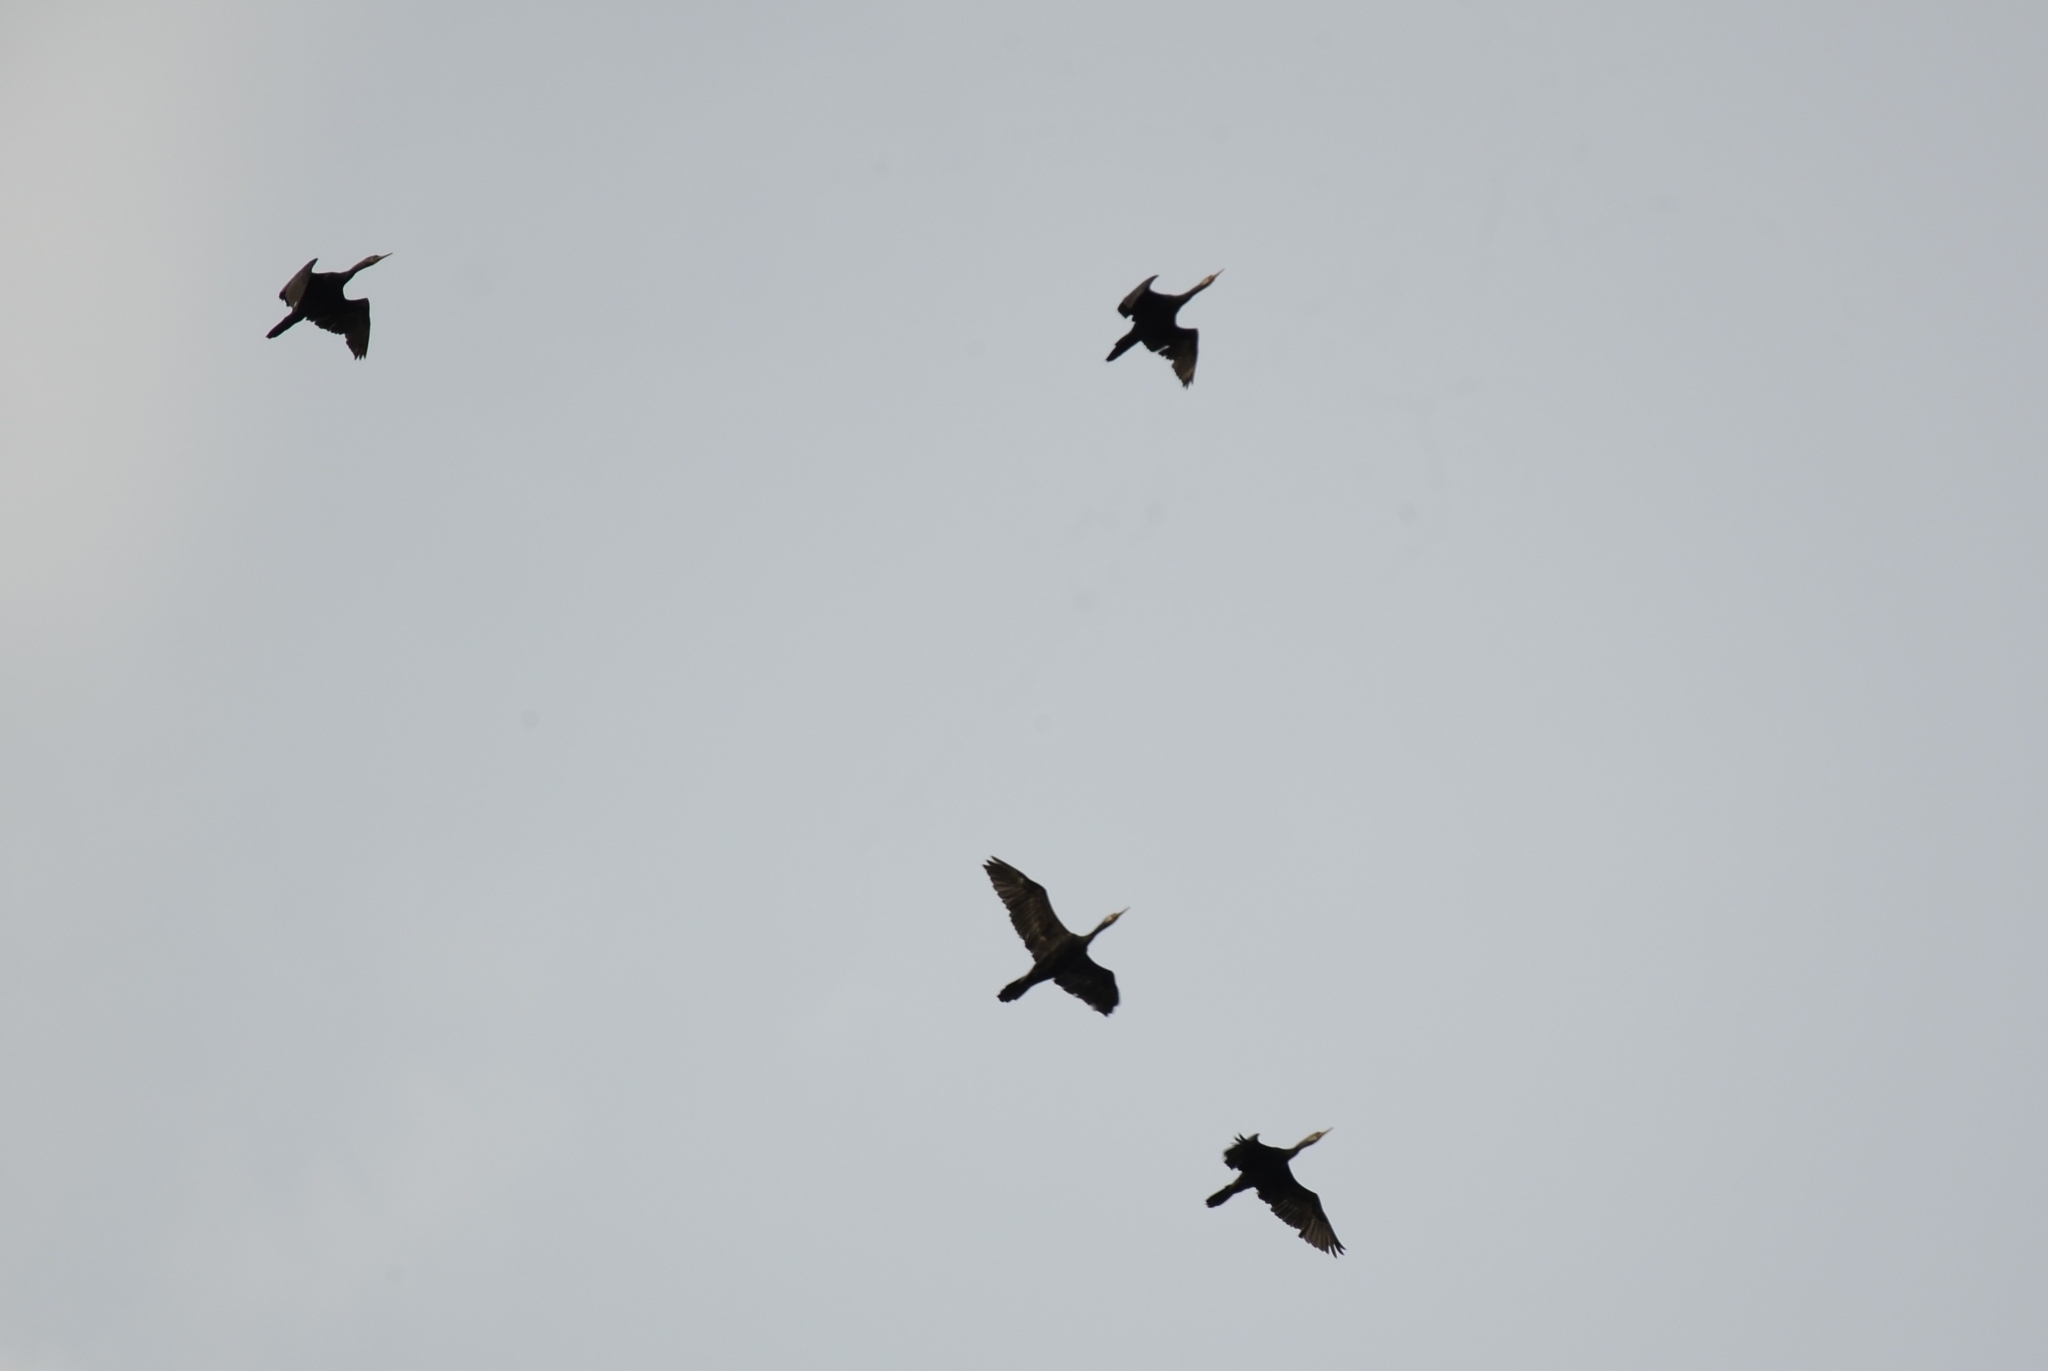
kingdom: Animalia
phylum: Chordata
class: Aves
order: Suliformes
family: Phalacrocoracidae
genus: Phalacrocorax
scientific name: Phalacrocorax fuscicollis
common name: Indian cormorant
